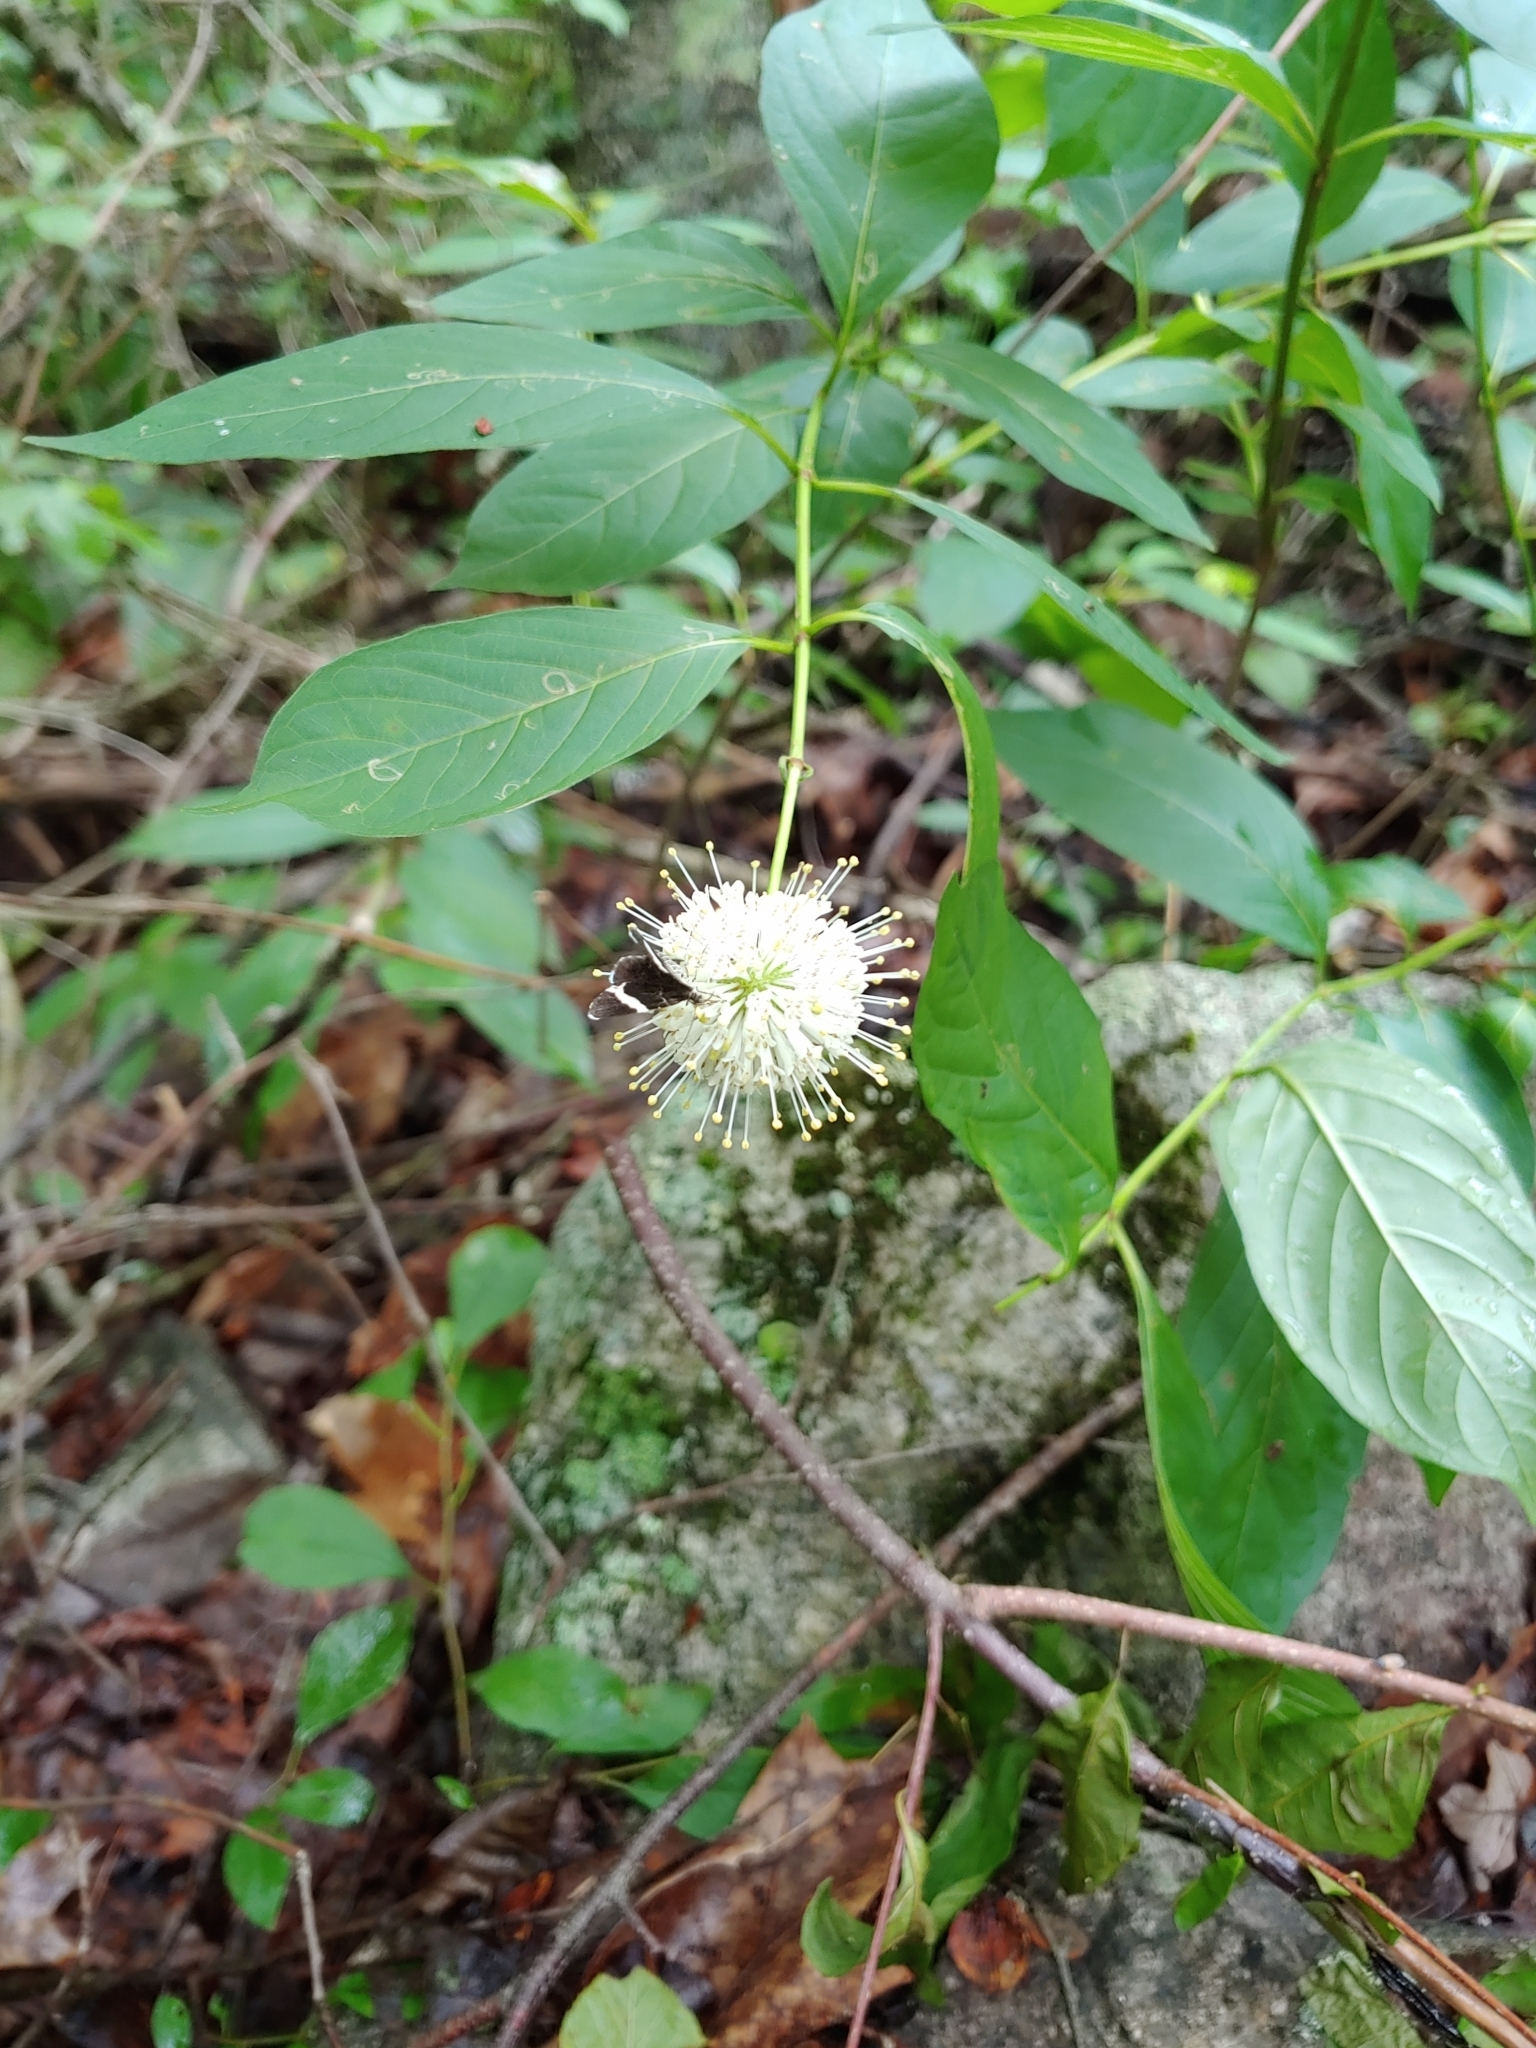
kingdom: Plantae
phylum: Tracheophyta
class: Magnoliopsida
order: Gentianales
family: Rubiaceae
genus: Cephalanthus
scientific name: Cephalanthus occidentalis
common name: Button-willow
